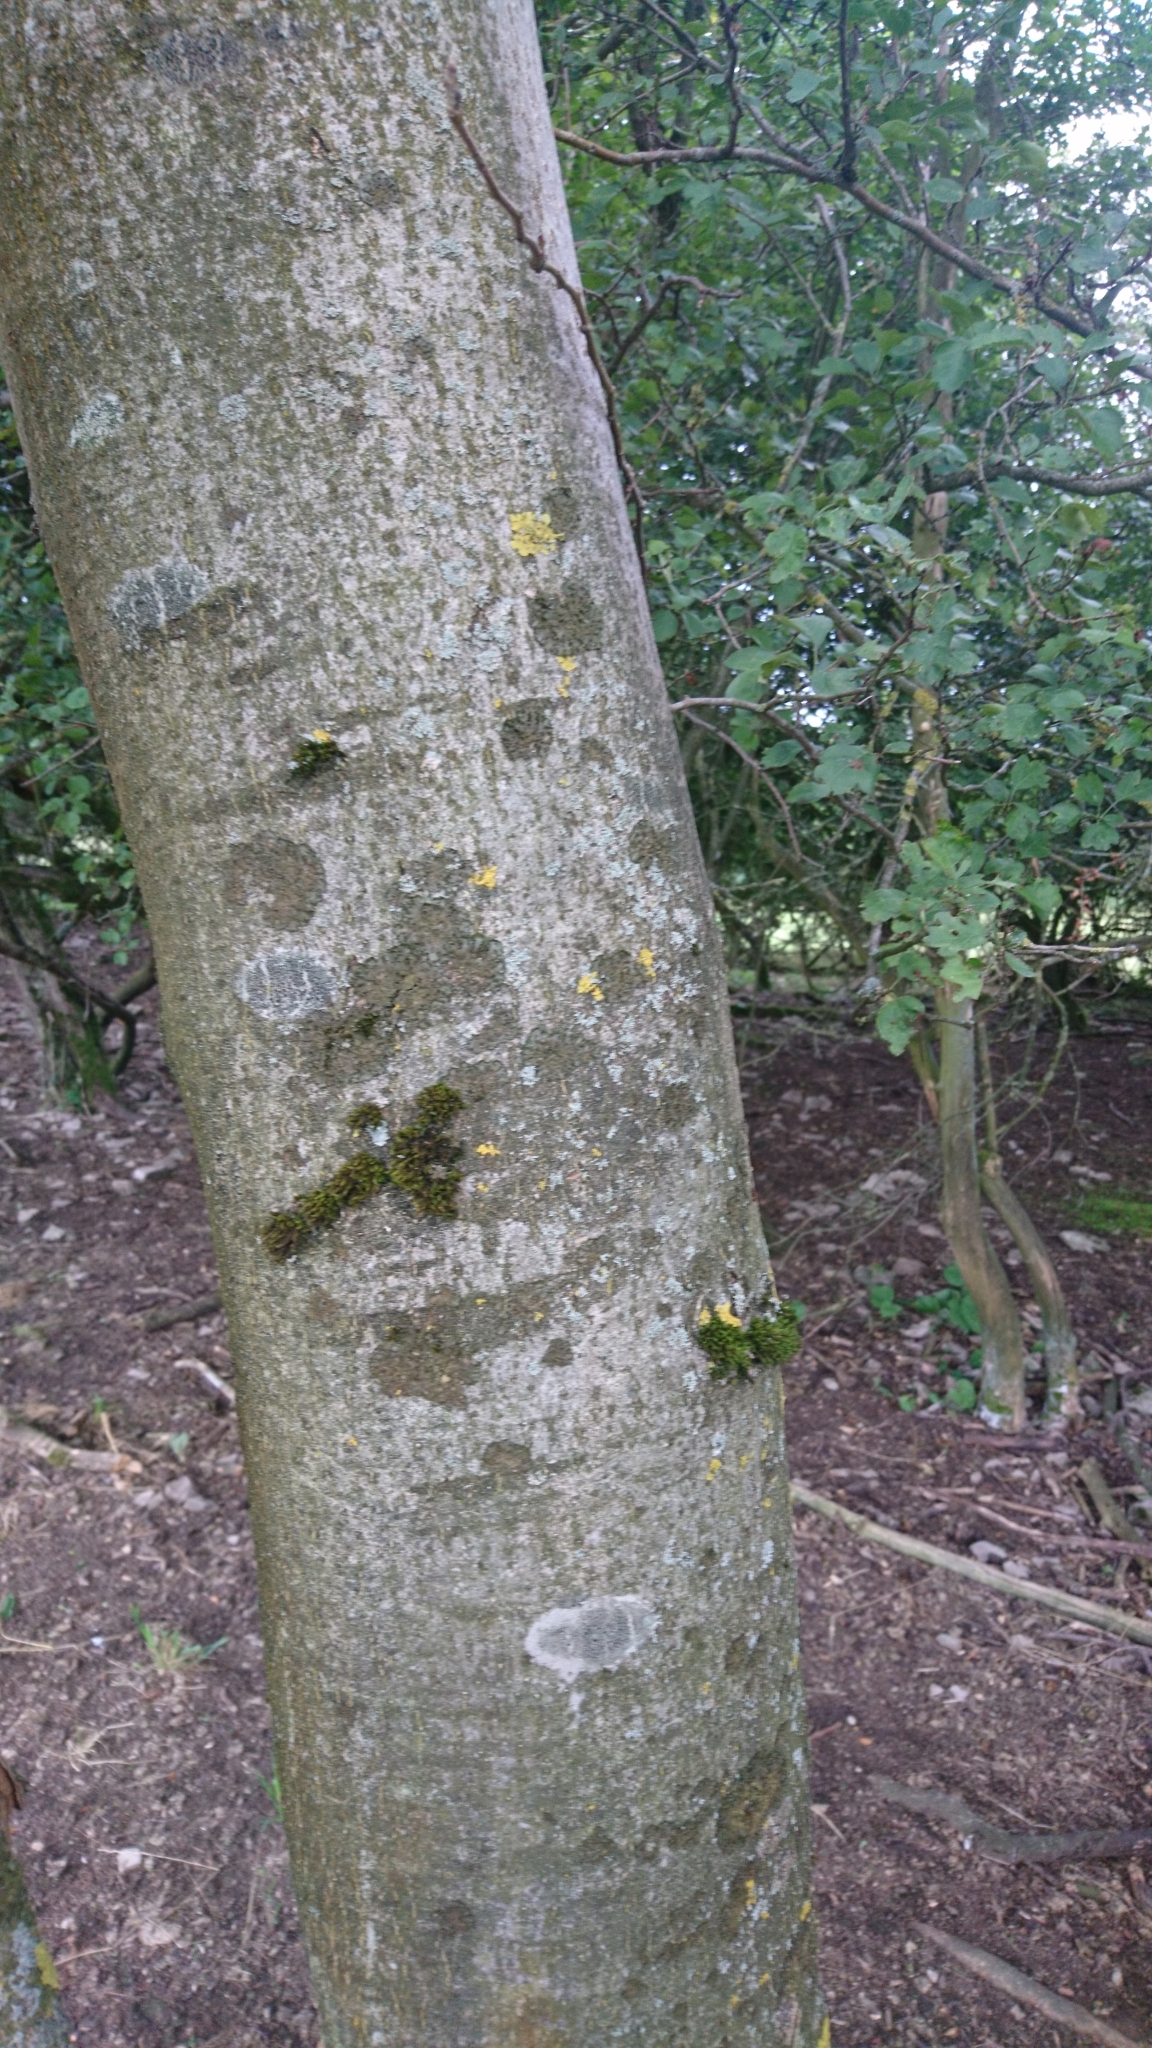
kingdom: Plantae
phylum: Tracheophyta
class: Magnoliopsida
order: Lamiales
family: Oleaceae
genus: Fraxinus
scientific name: Fraxinus excelsior
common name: European ash
